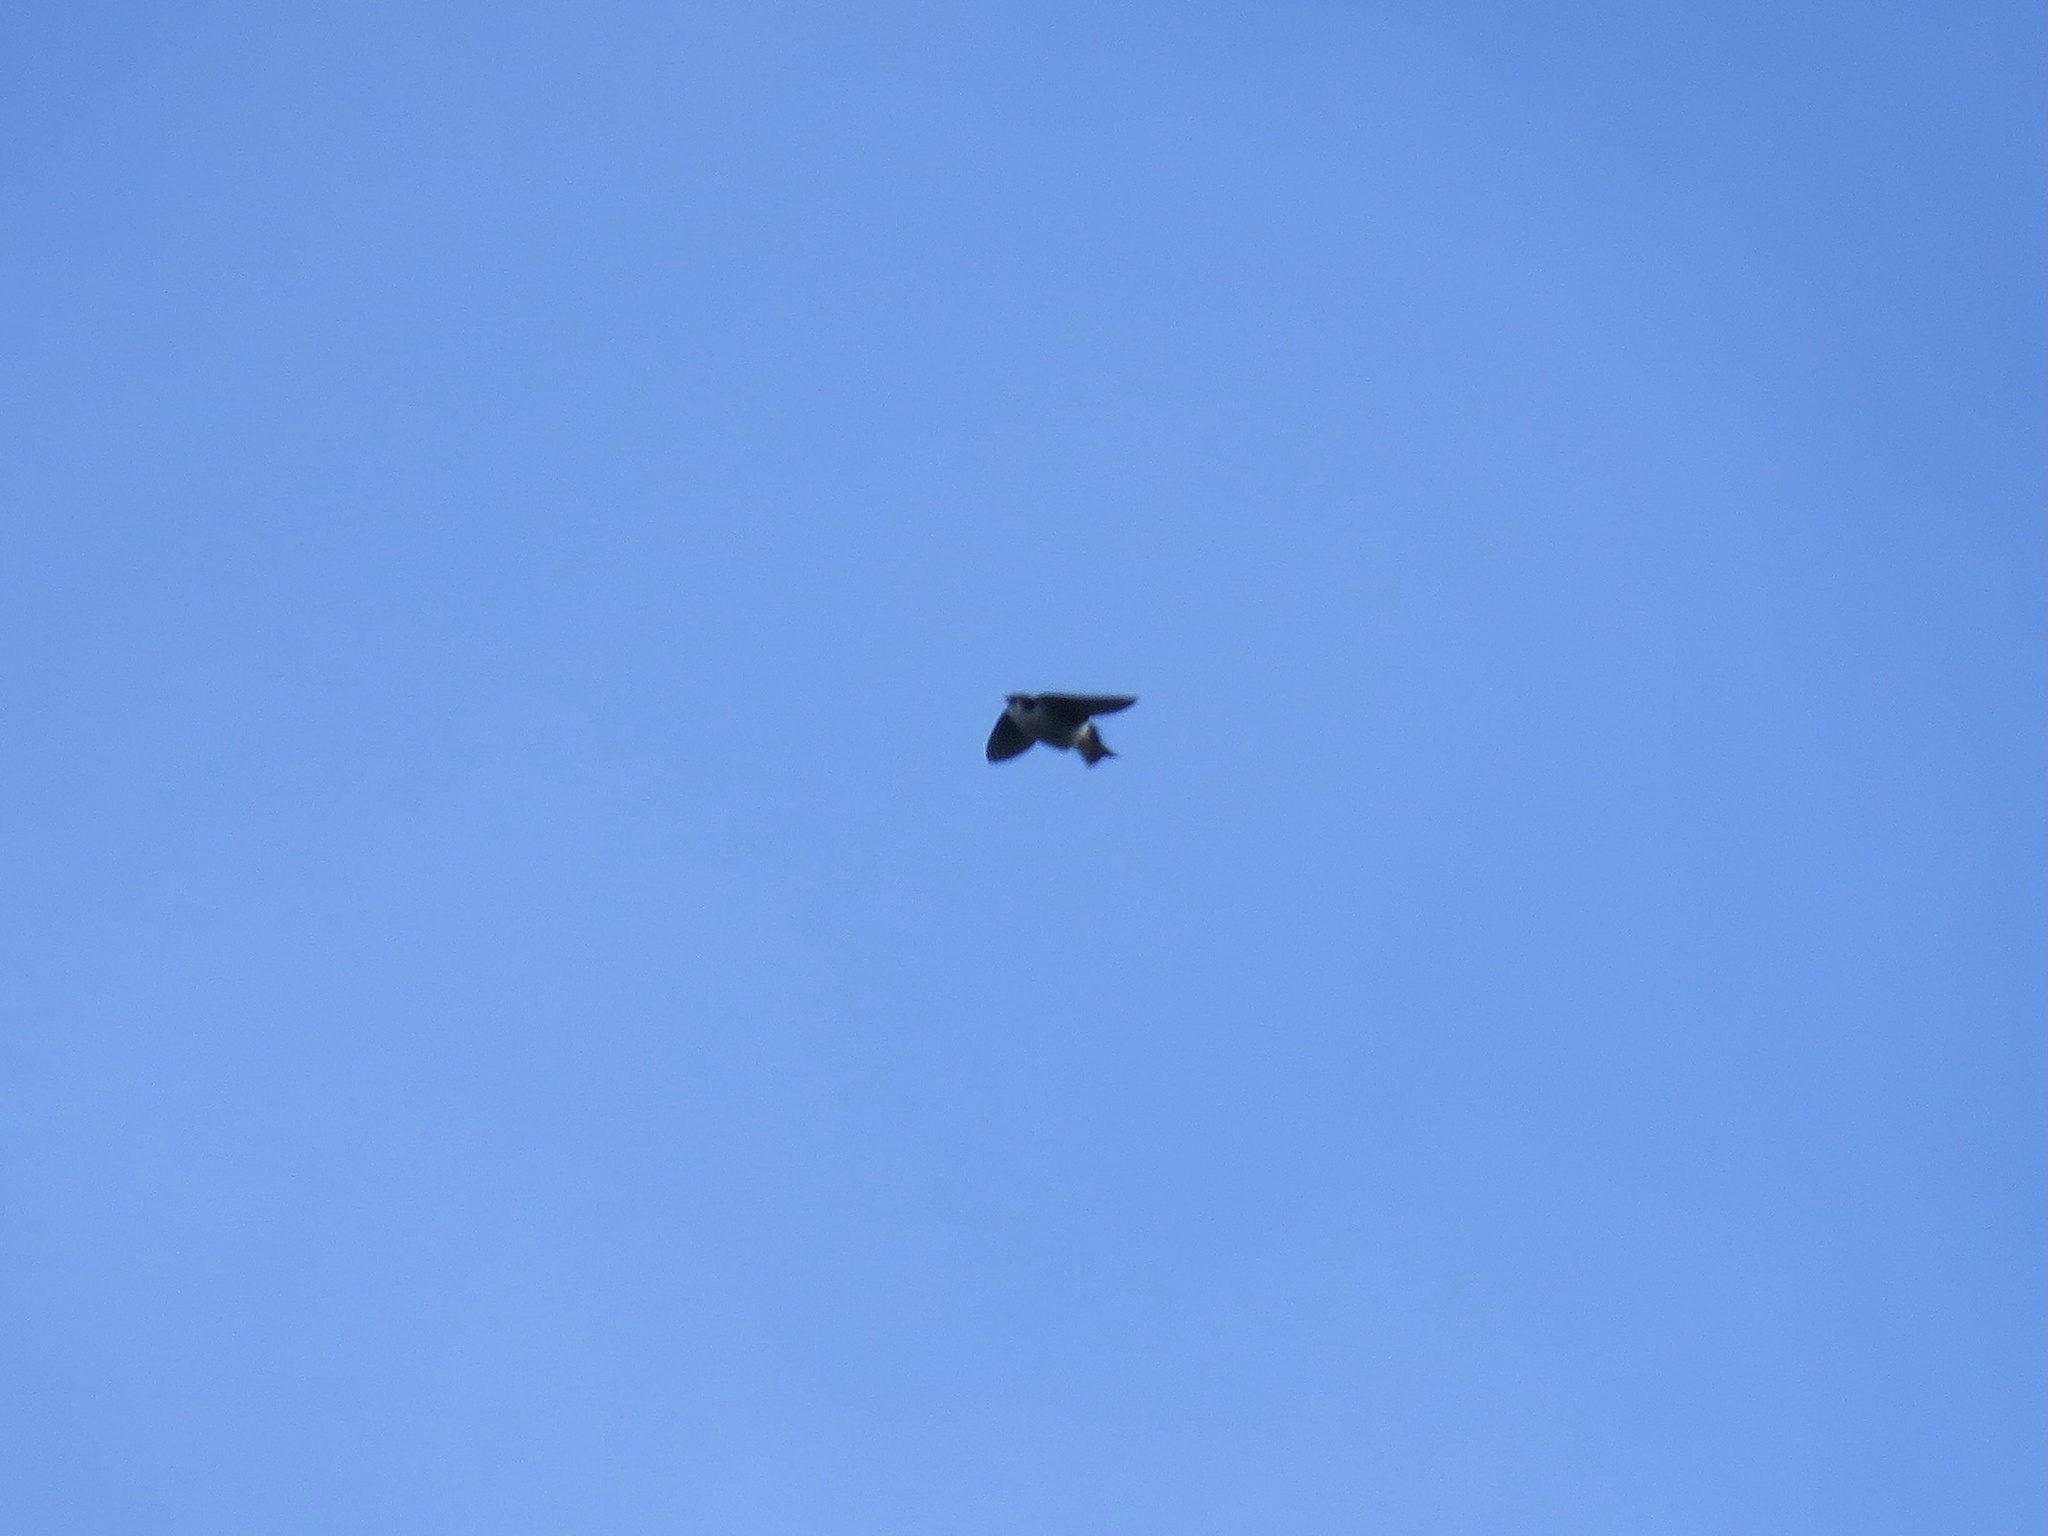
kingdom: Animalia
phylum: Chordata
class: Aves
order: Passeriformes
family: Hirundinidae
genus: Tachycineta
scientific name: Tachycineta thalassina
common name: Violet-green swallow
